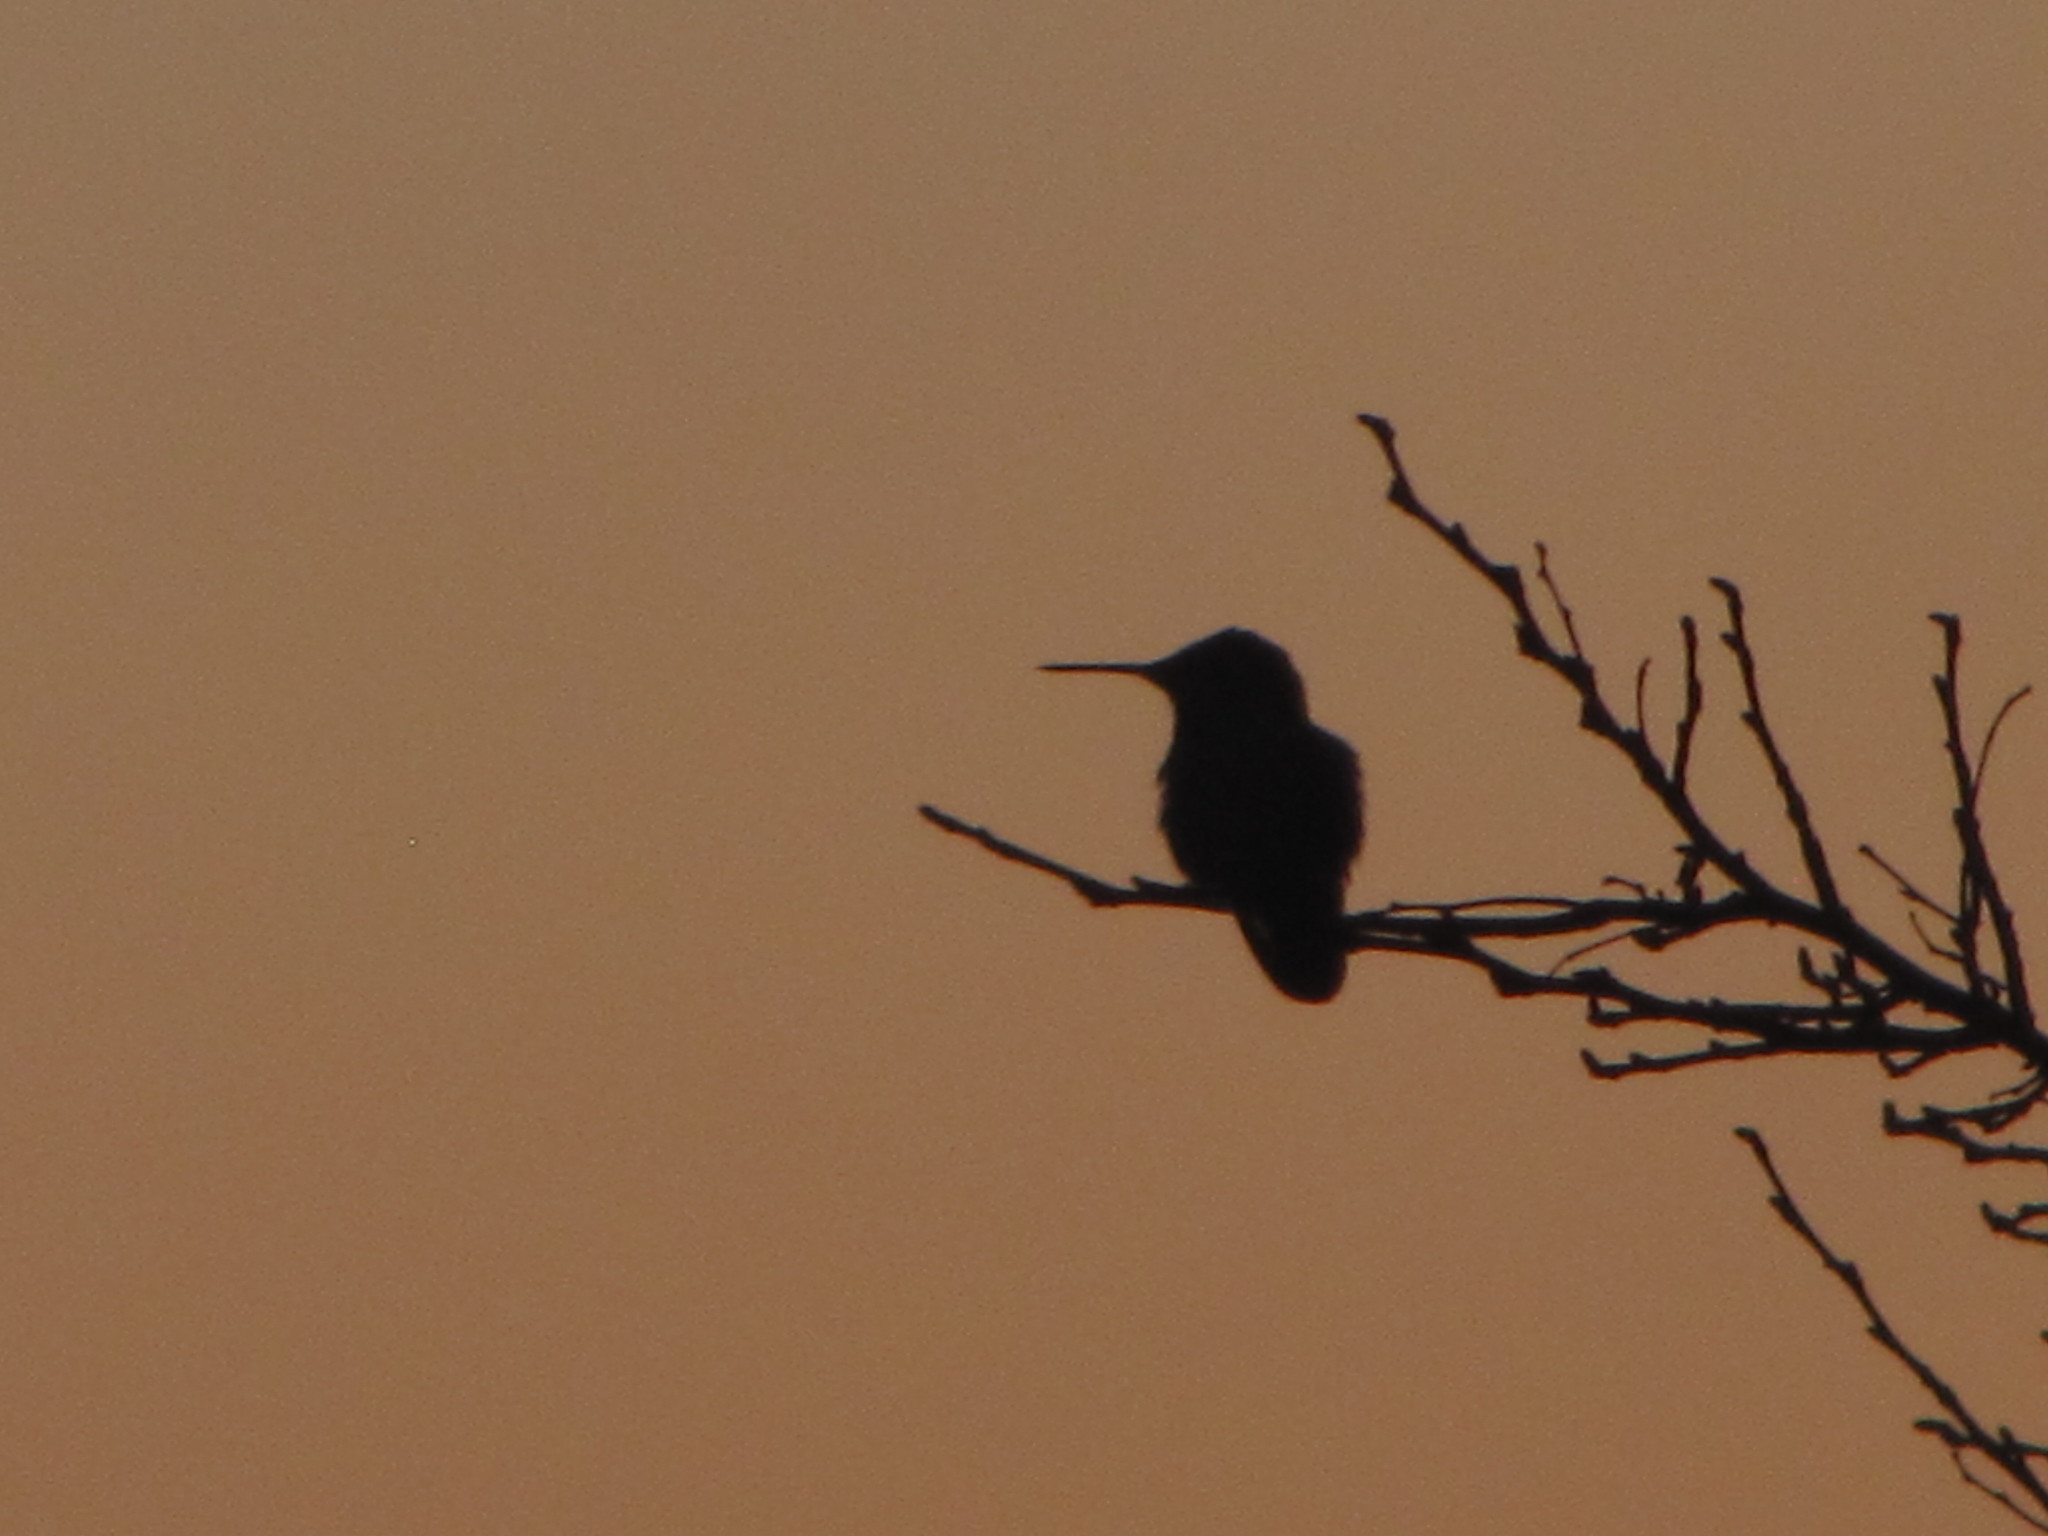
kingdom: Animalia
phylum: Chordata
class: Aves
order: Apodiformes
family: Trochilidae
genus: Calypte
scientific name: Calypte anna
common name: Anna's hummingbird
